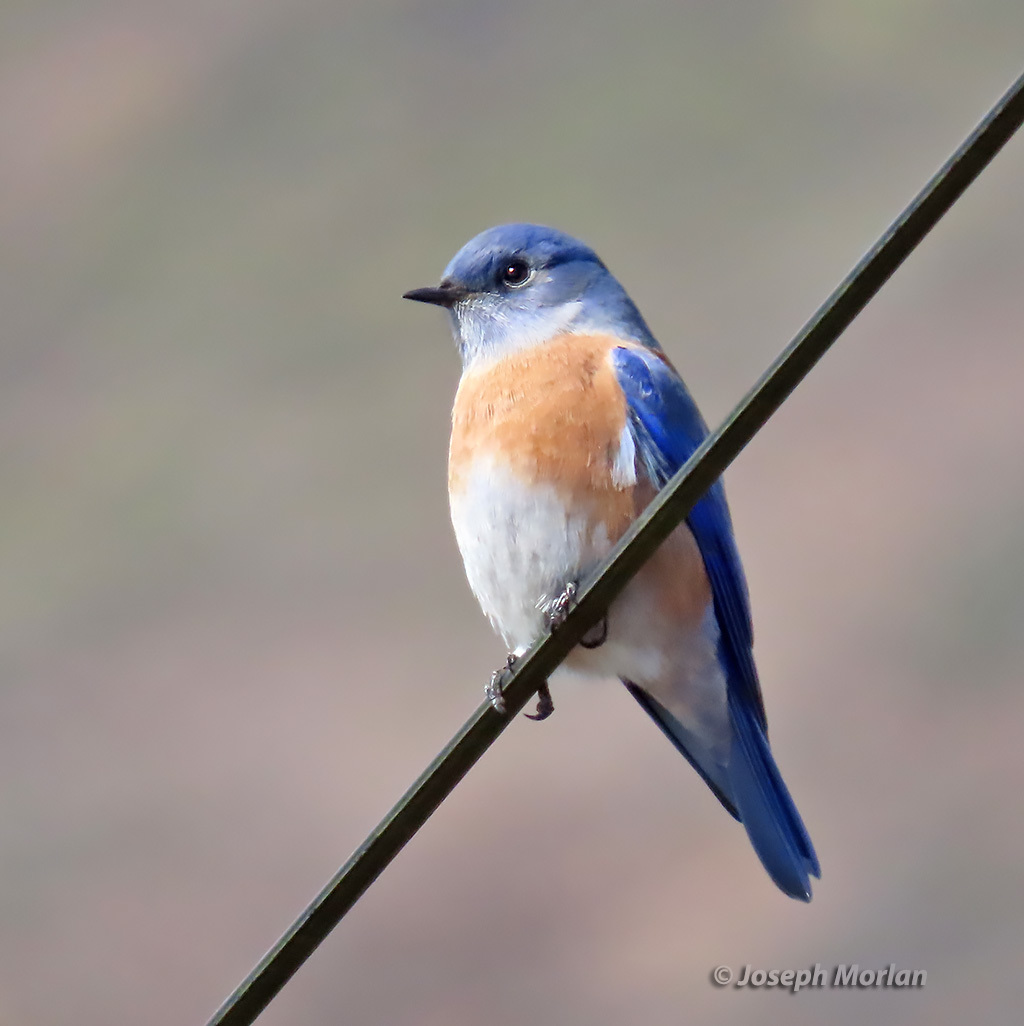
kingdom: Animalia
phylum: Chordata
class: Aves
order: Passeriformes
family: Turdidae
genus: Sialia
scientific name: Sialia mexicana
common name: Western bluebird
